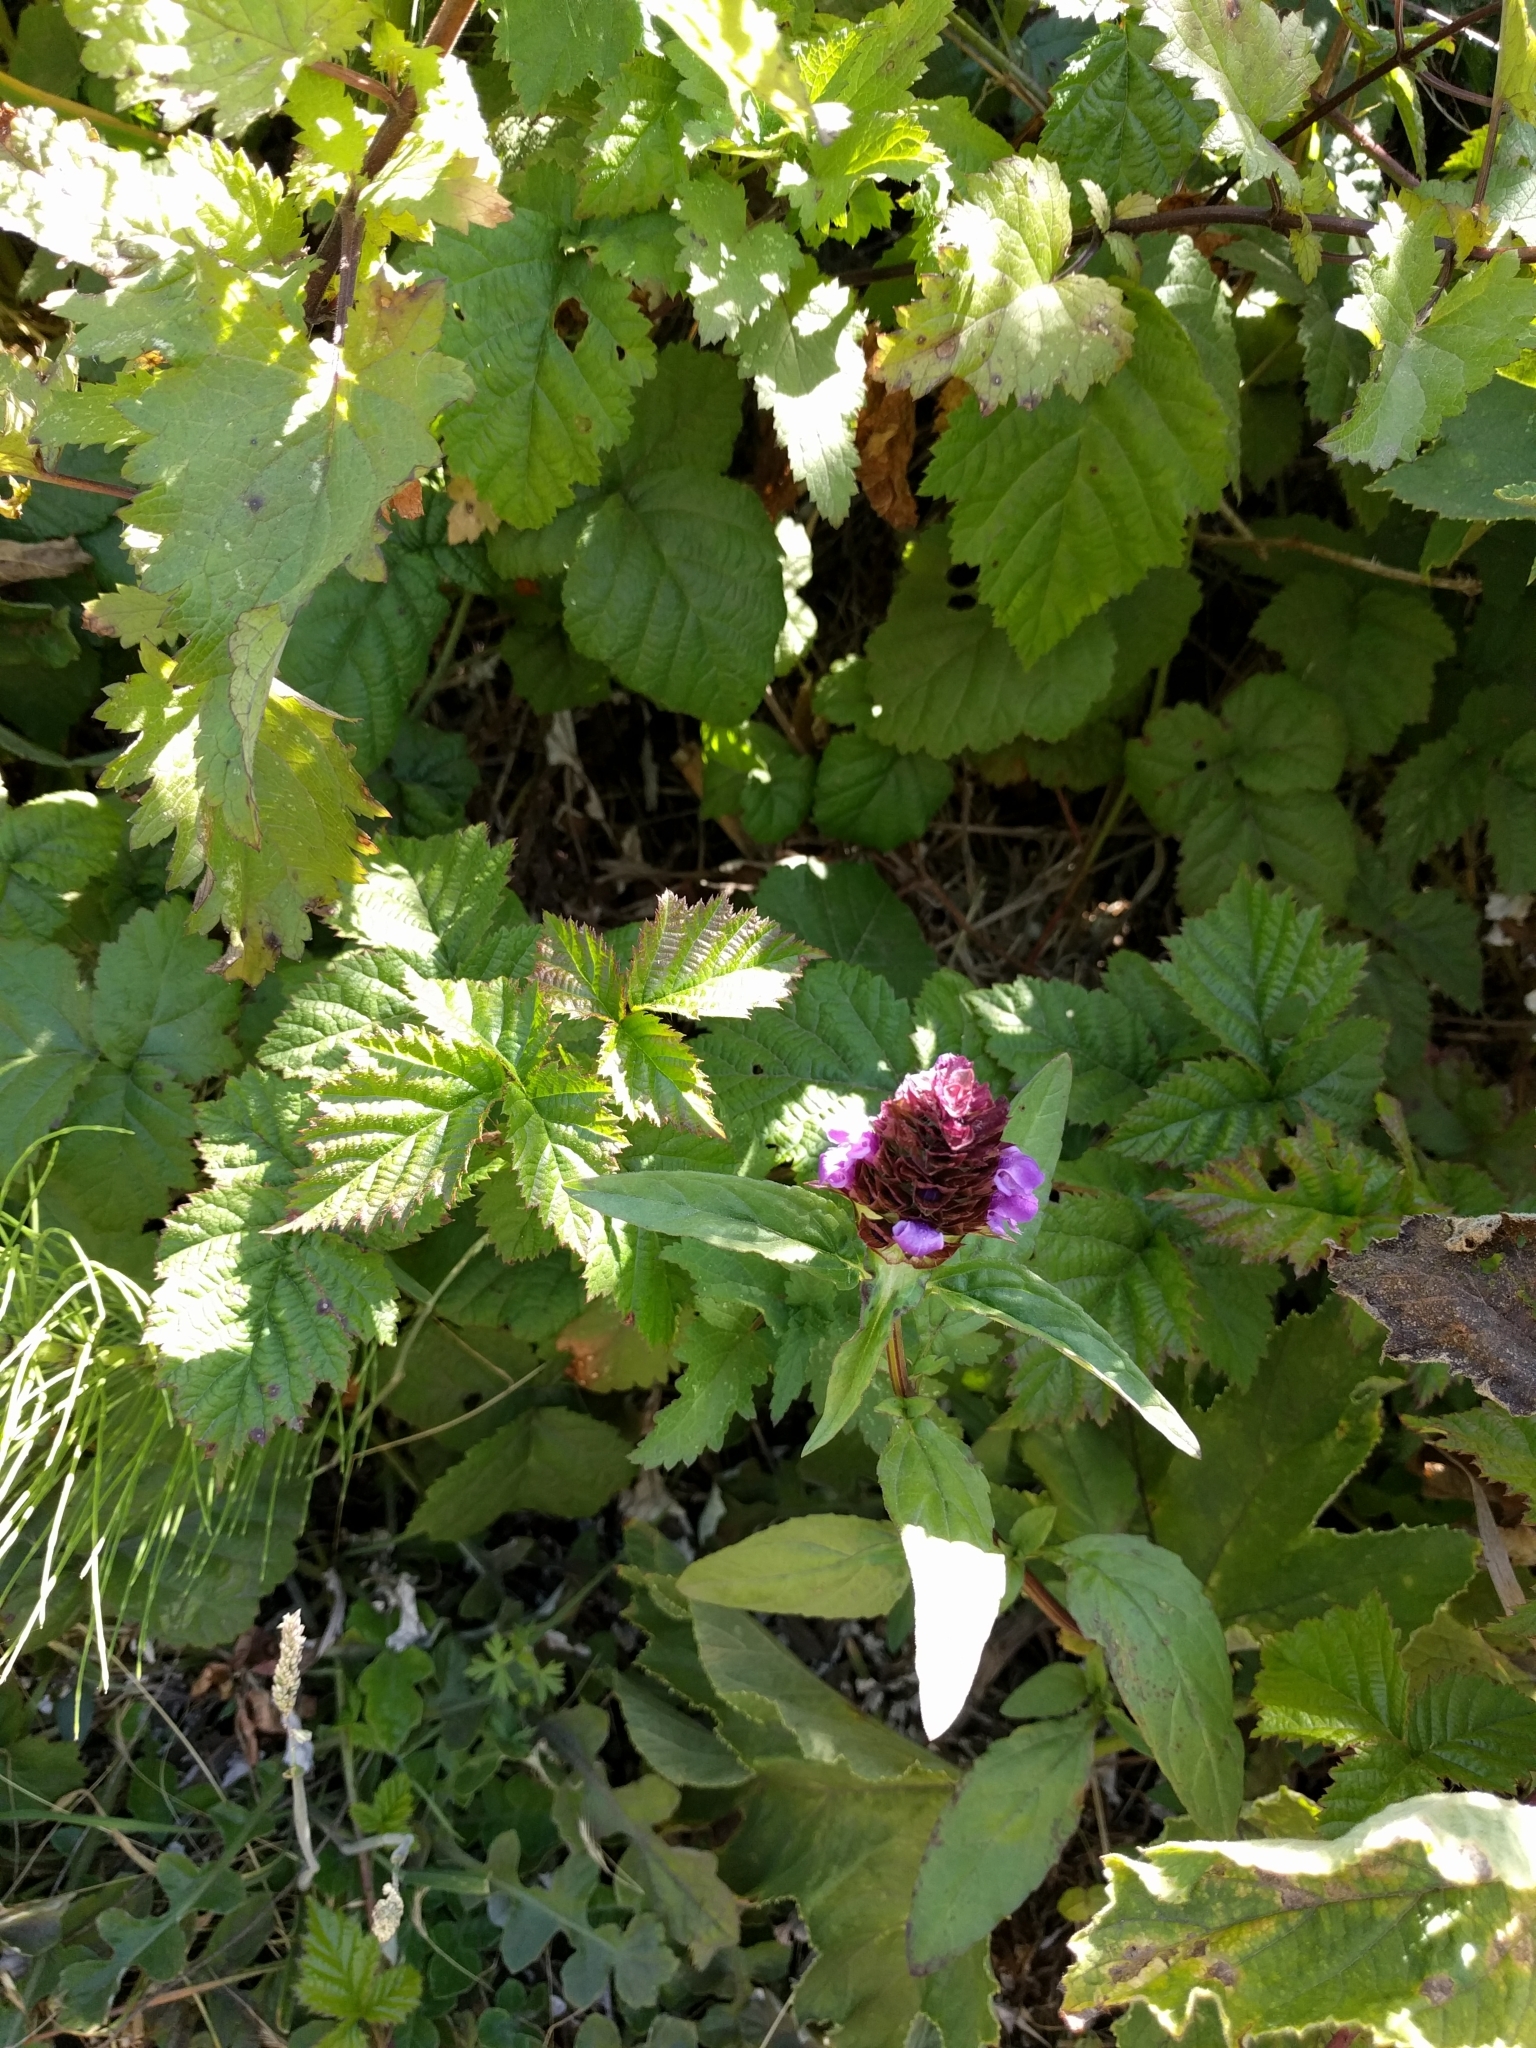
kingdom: Plantae
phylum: Tracheophyta
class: Magnoliopsida
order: Lamiales
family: Lamiaceae
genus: Prunella
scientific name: Prunella vulgaris
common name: Heal-all
